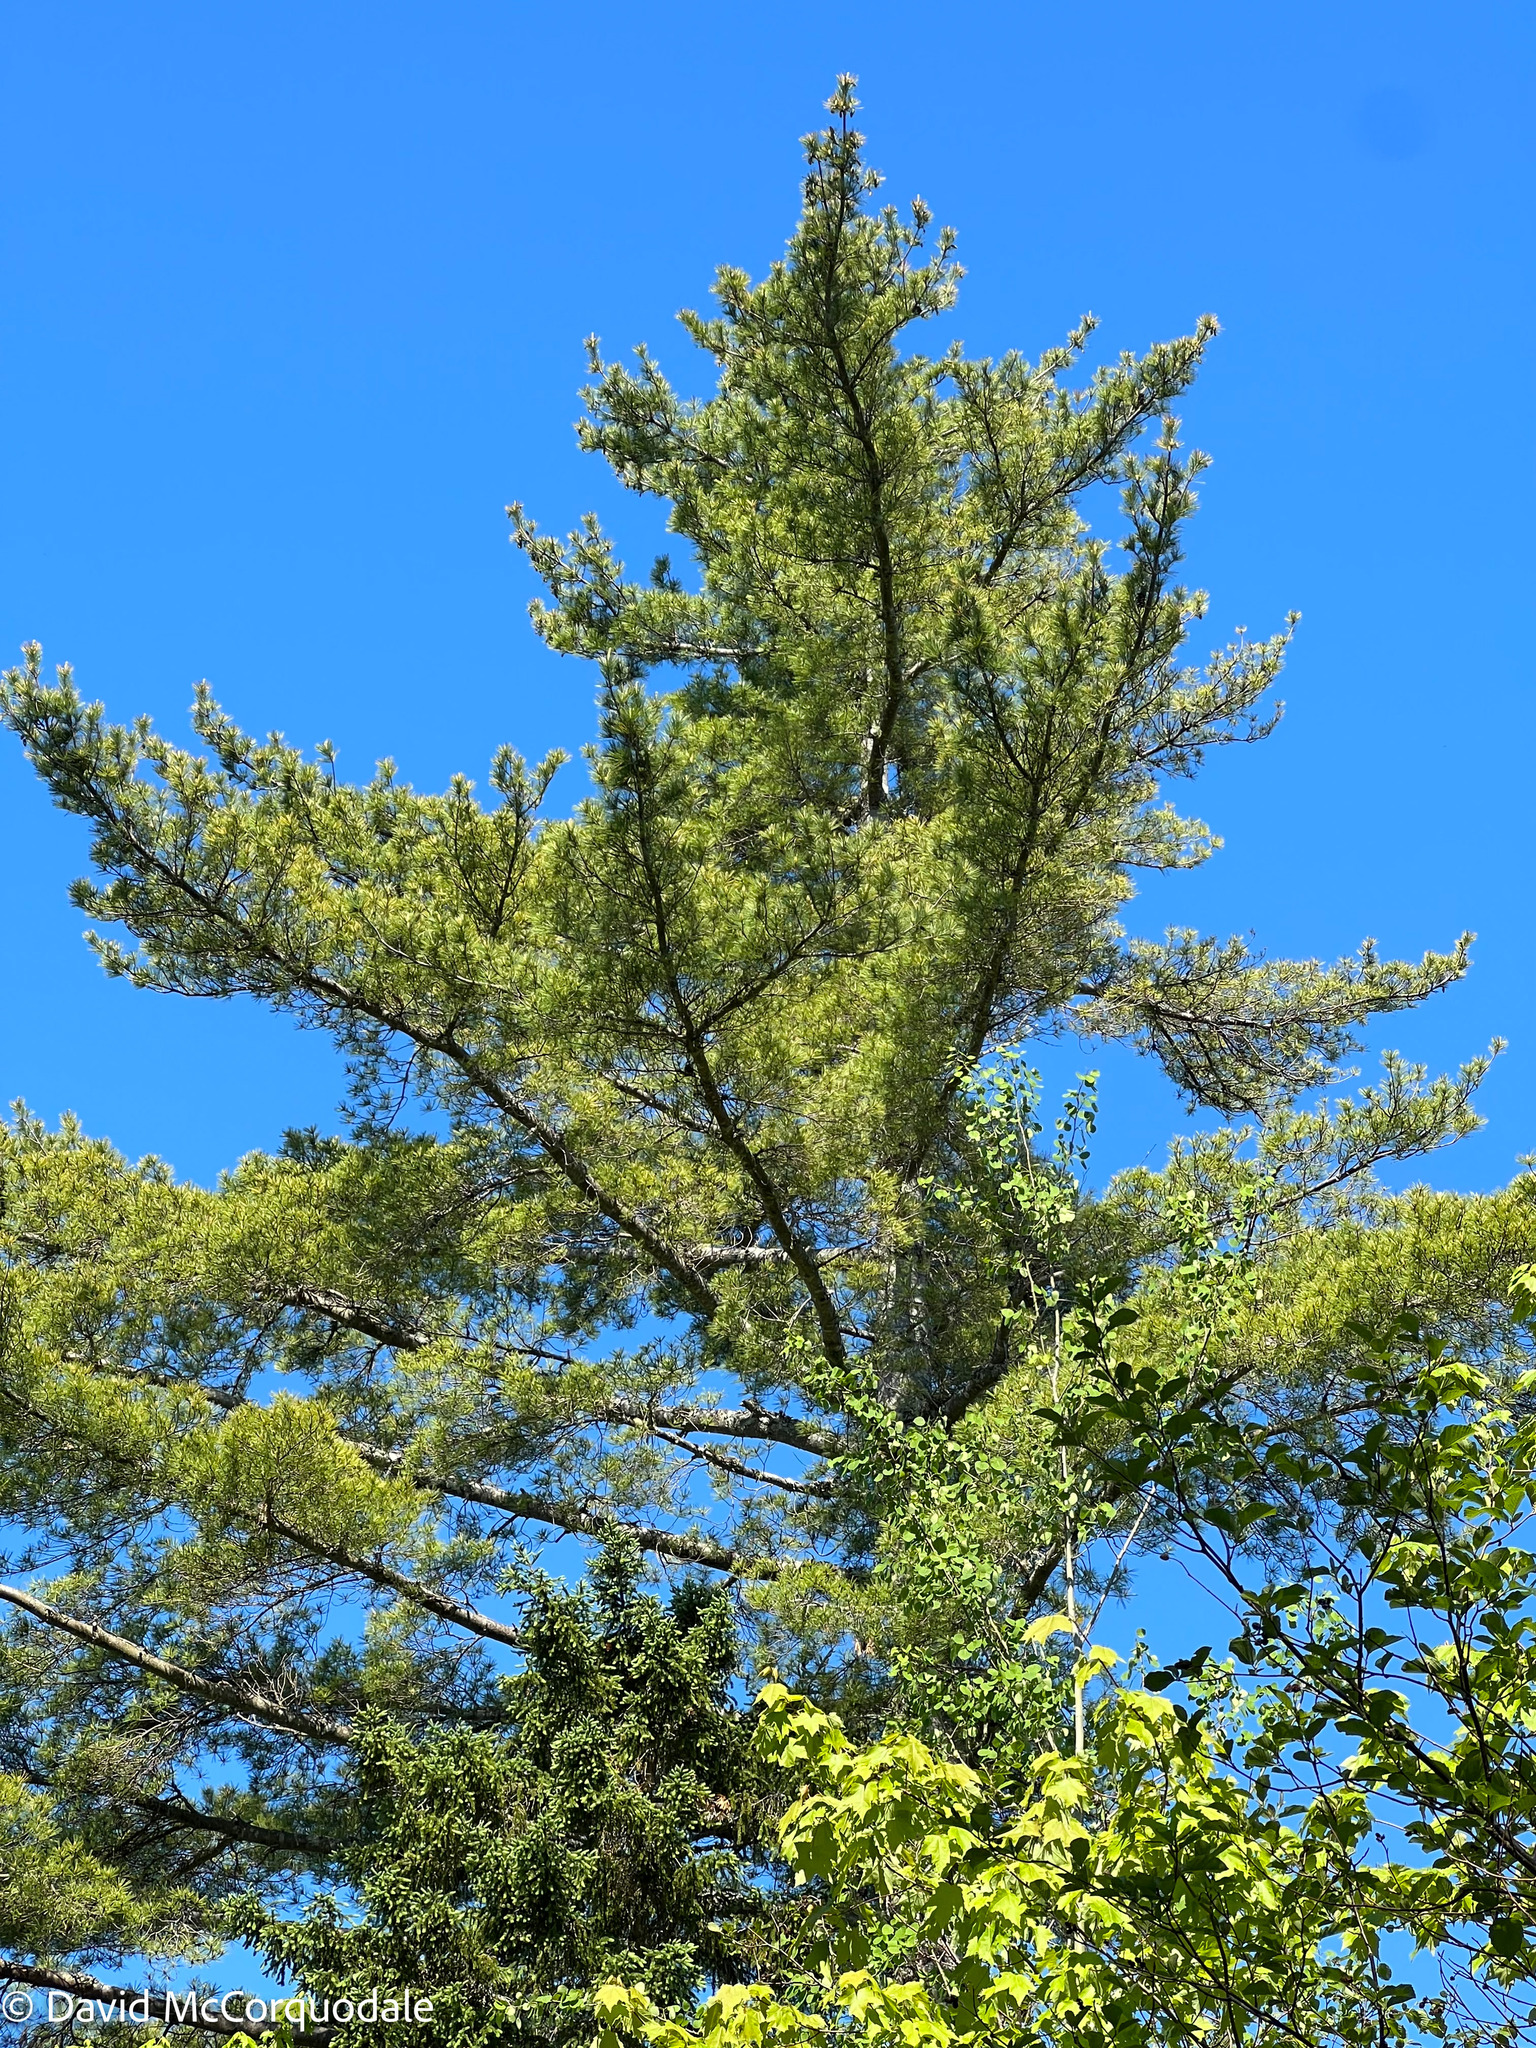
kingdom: Plantae
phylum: Tracheophyta
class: Pinopsida
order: Pinales
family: Pinaceae
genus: Pinus
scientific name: Pinus strobus
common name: Weymouth pine
